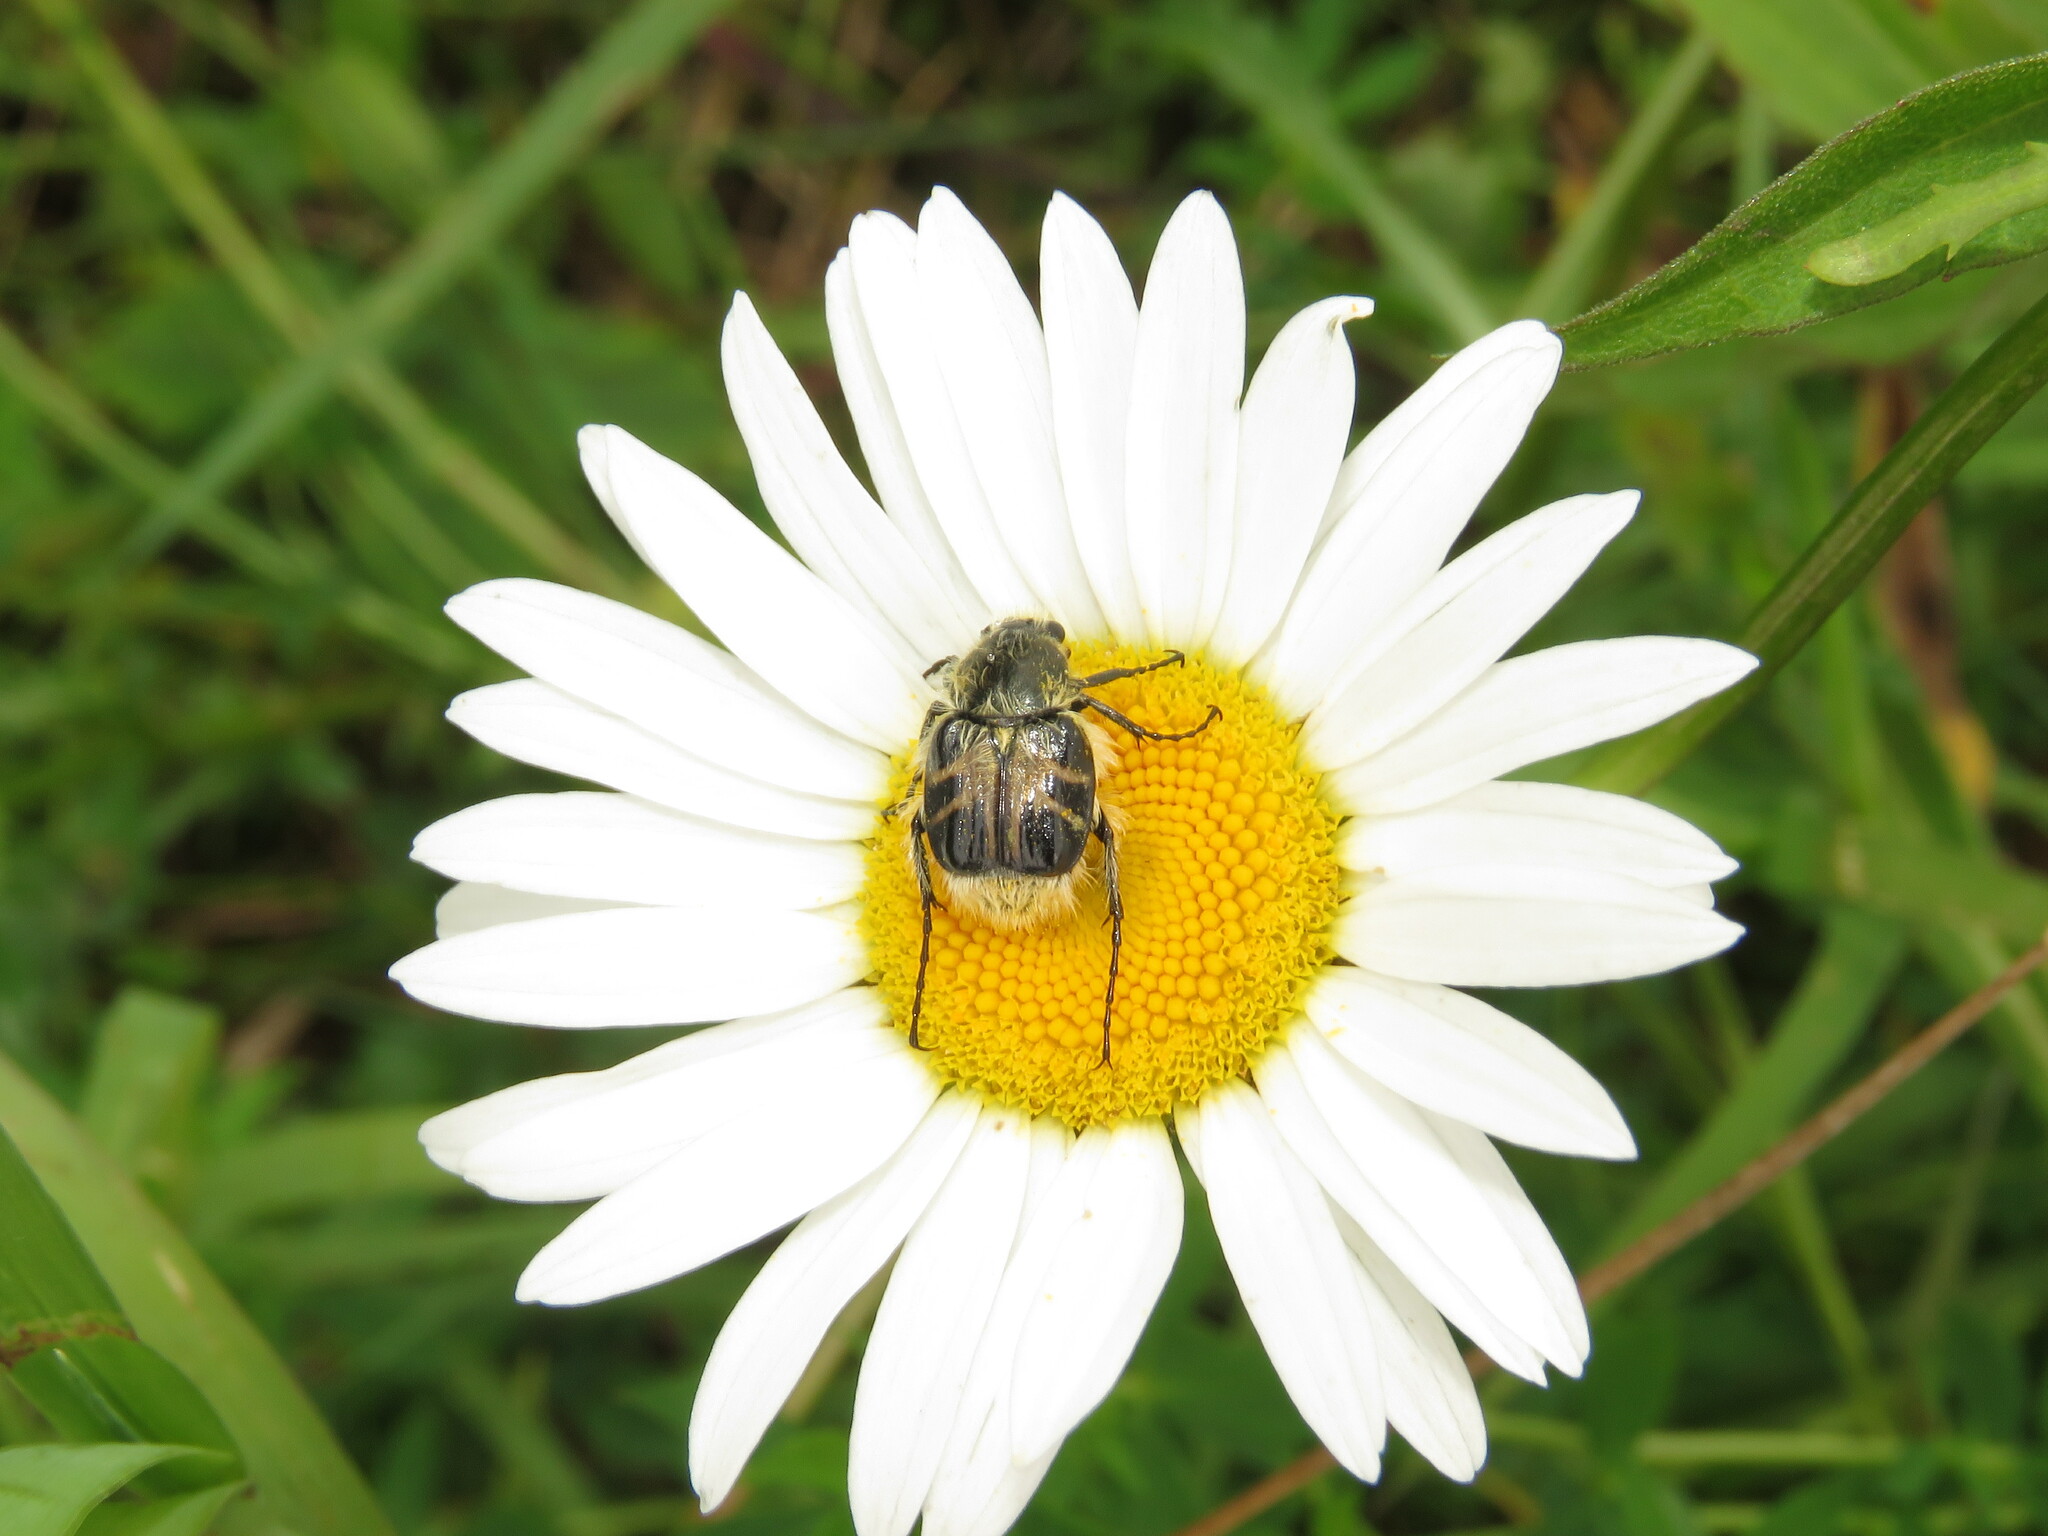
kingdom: Animalia
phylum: Arthropoda
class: Insecta
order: Coleoptera
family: Scarabaeidae
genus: Trichiotinus
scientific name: Trichiotinus assimilis
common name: Bee-mimic beetle
